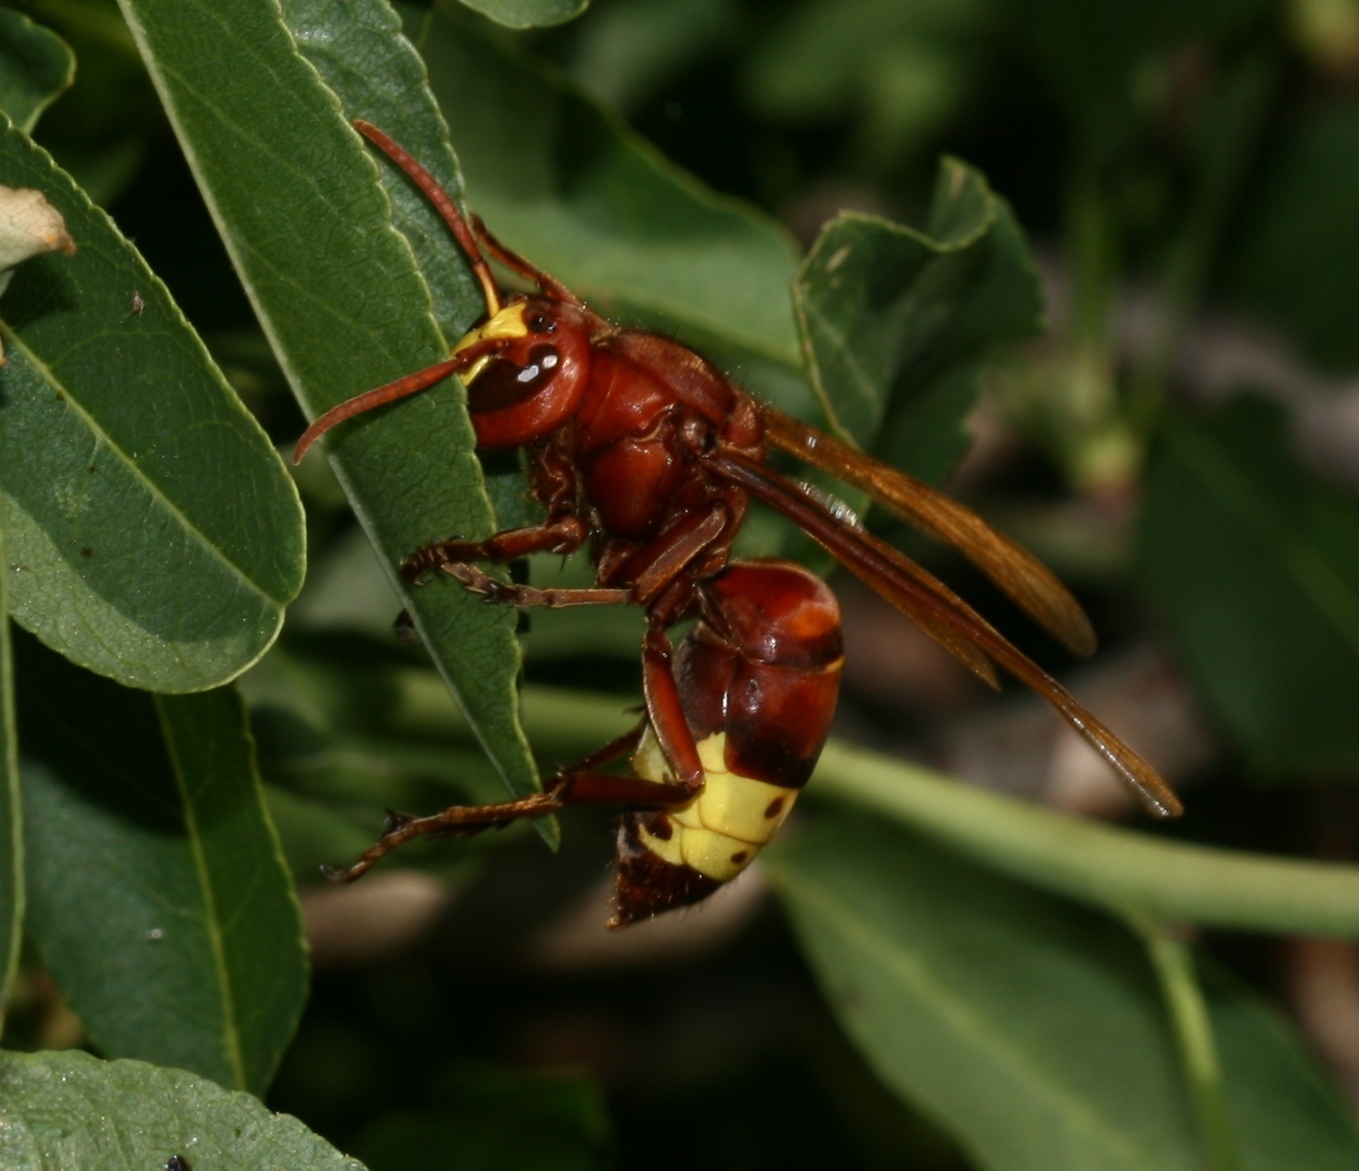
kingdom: Animalia
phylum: Arthropoda
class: Insecta
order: Hymenoptera
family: Vespidae
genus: Vespa
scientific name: Vespa orientalis
